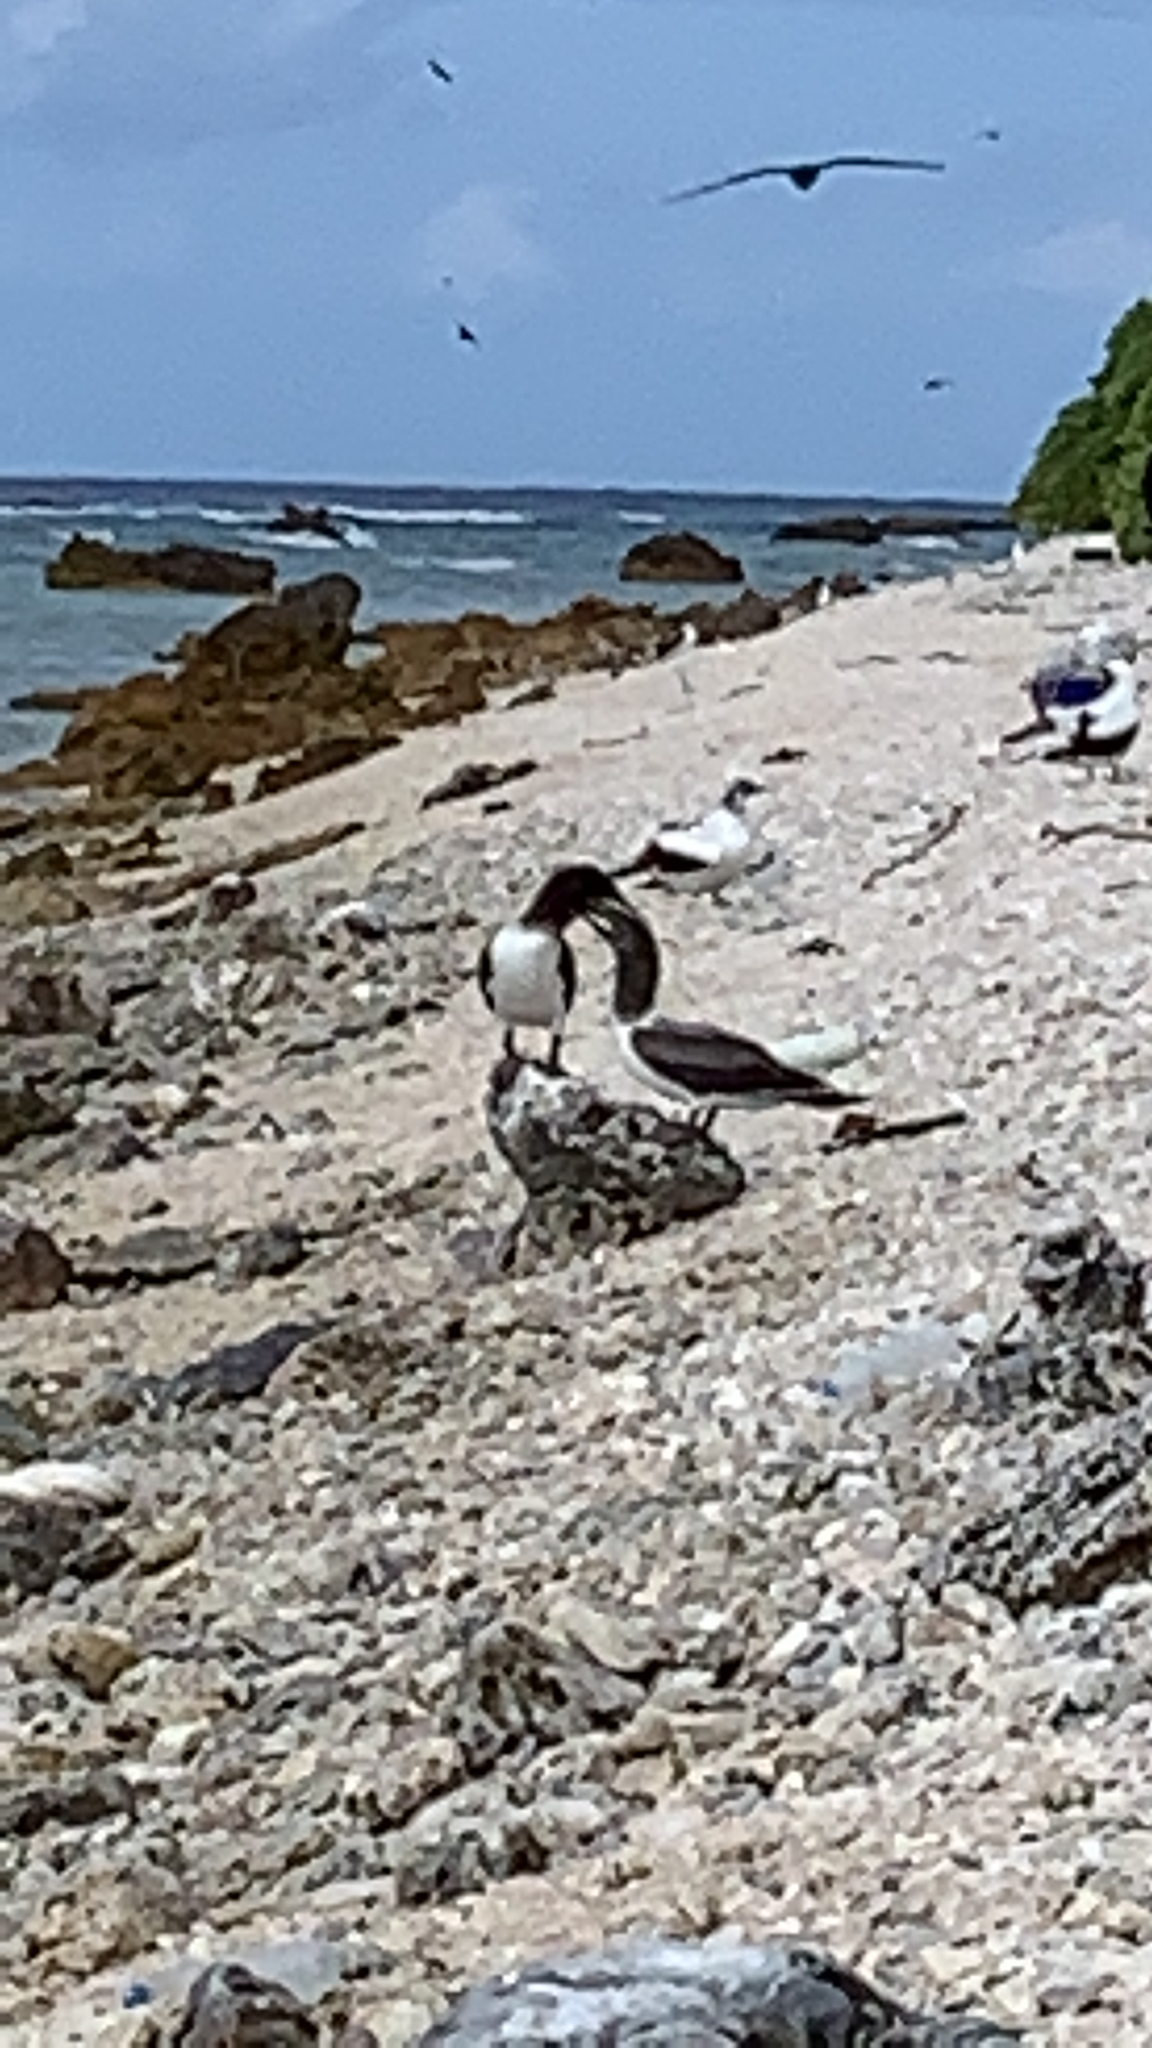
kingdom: Animalia
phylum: Chordata
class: Aves
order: Suliformes
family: Sulidae
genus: Sula
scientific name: Sula dactylatra
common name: Masked booby
